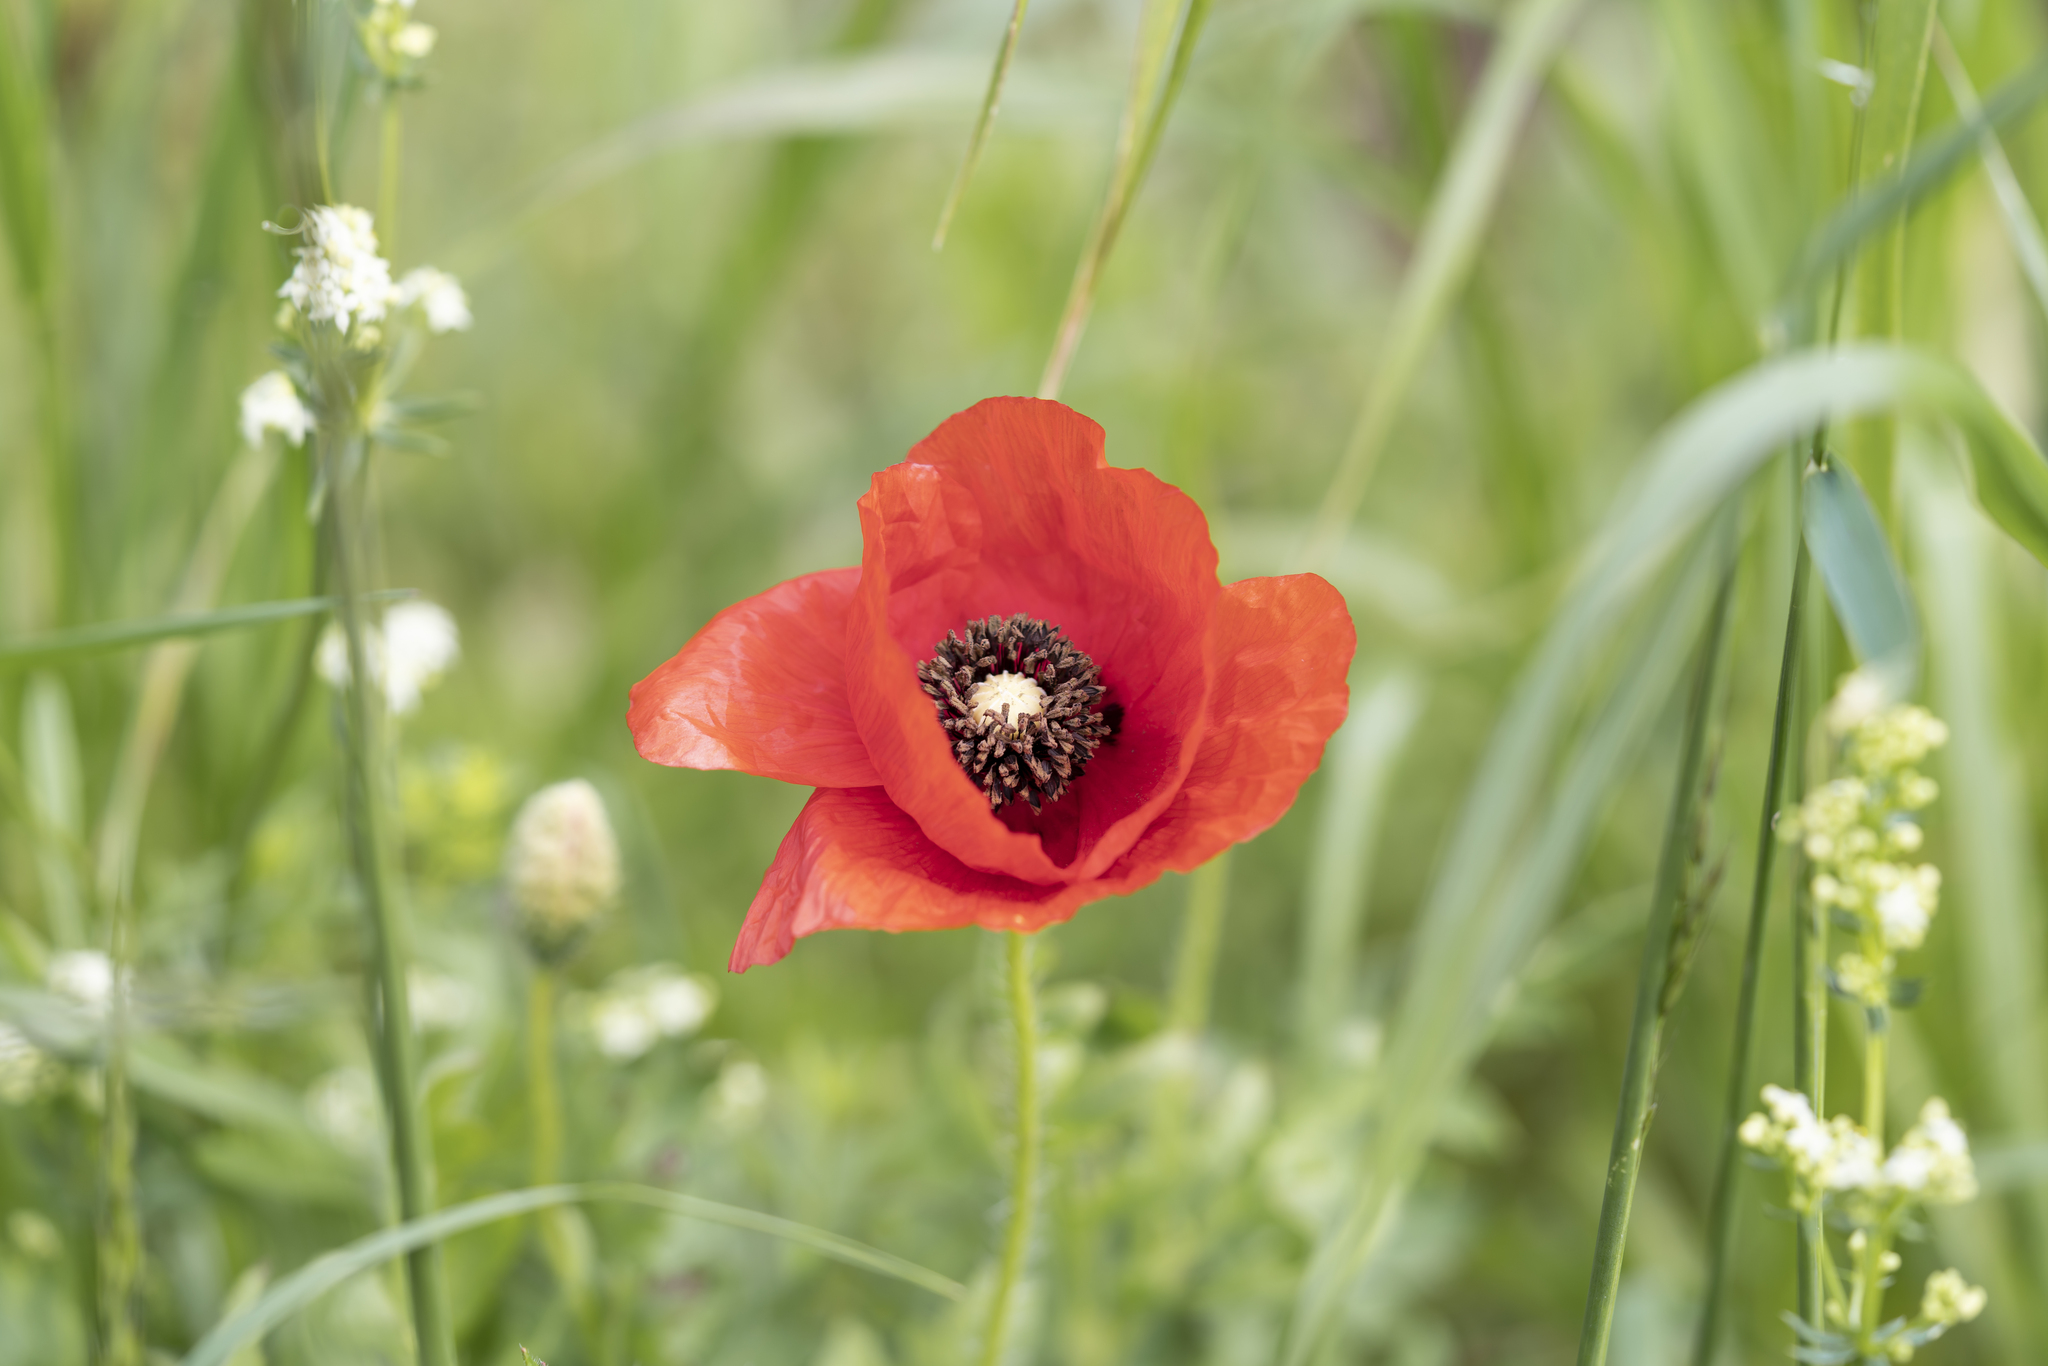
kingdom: Plantae
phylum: Tracheophyta
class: Magnoliopsida
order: Ranunculales
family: Papaveraceae
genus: Papaver
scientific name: Papaver rhoeas
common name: Corn poppy
